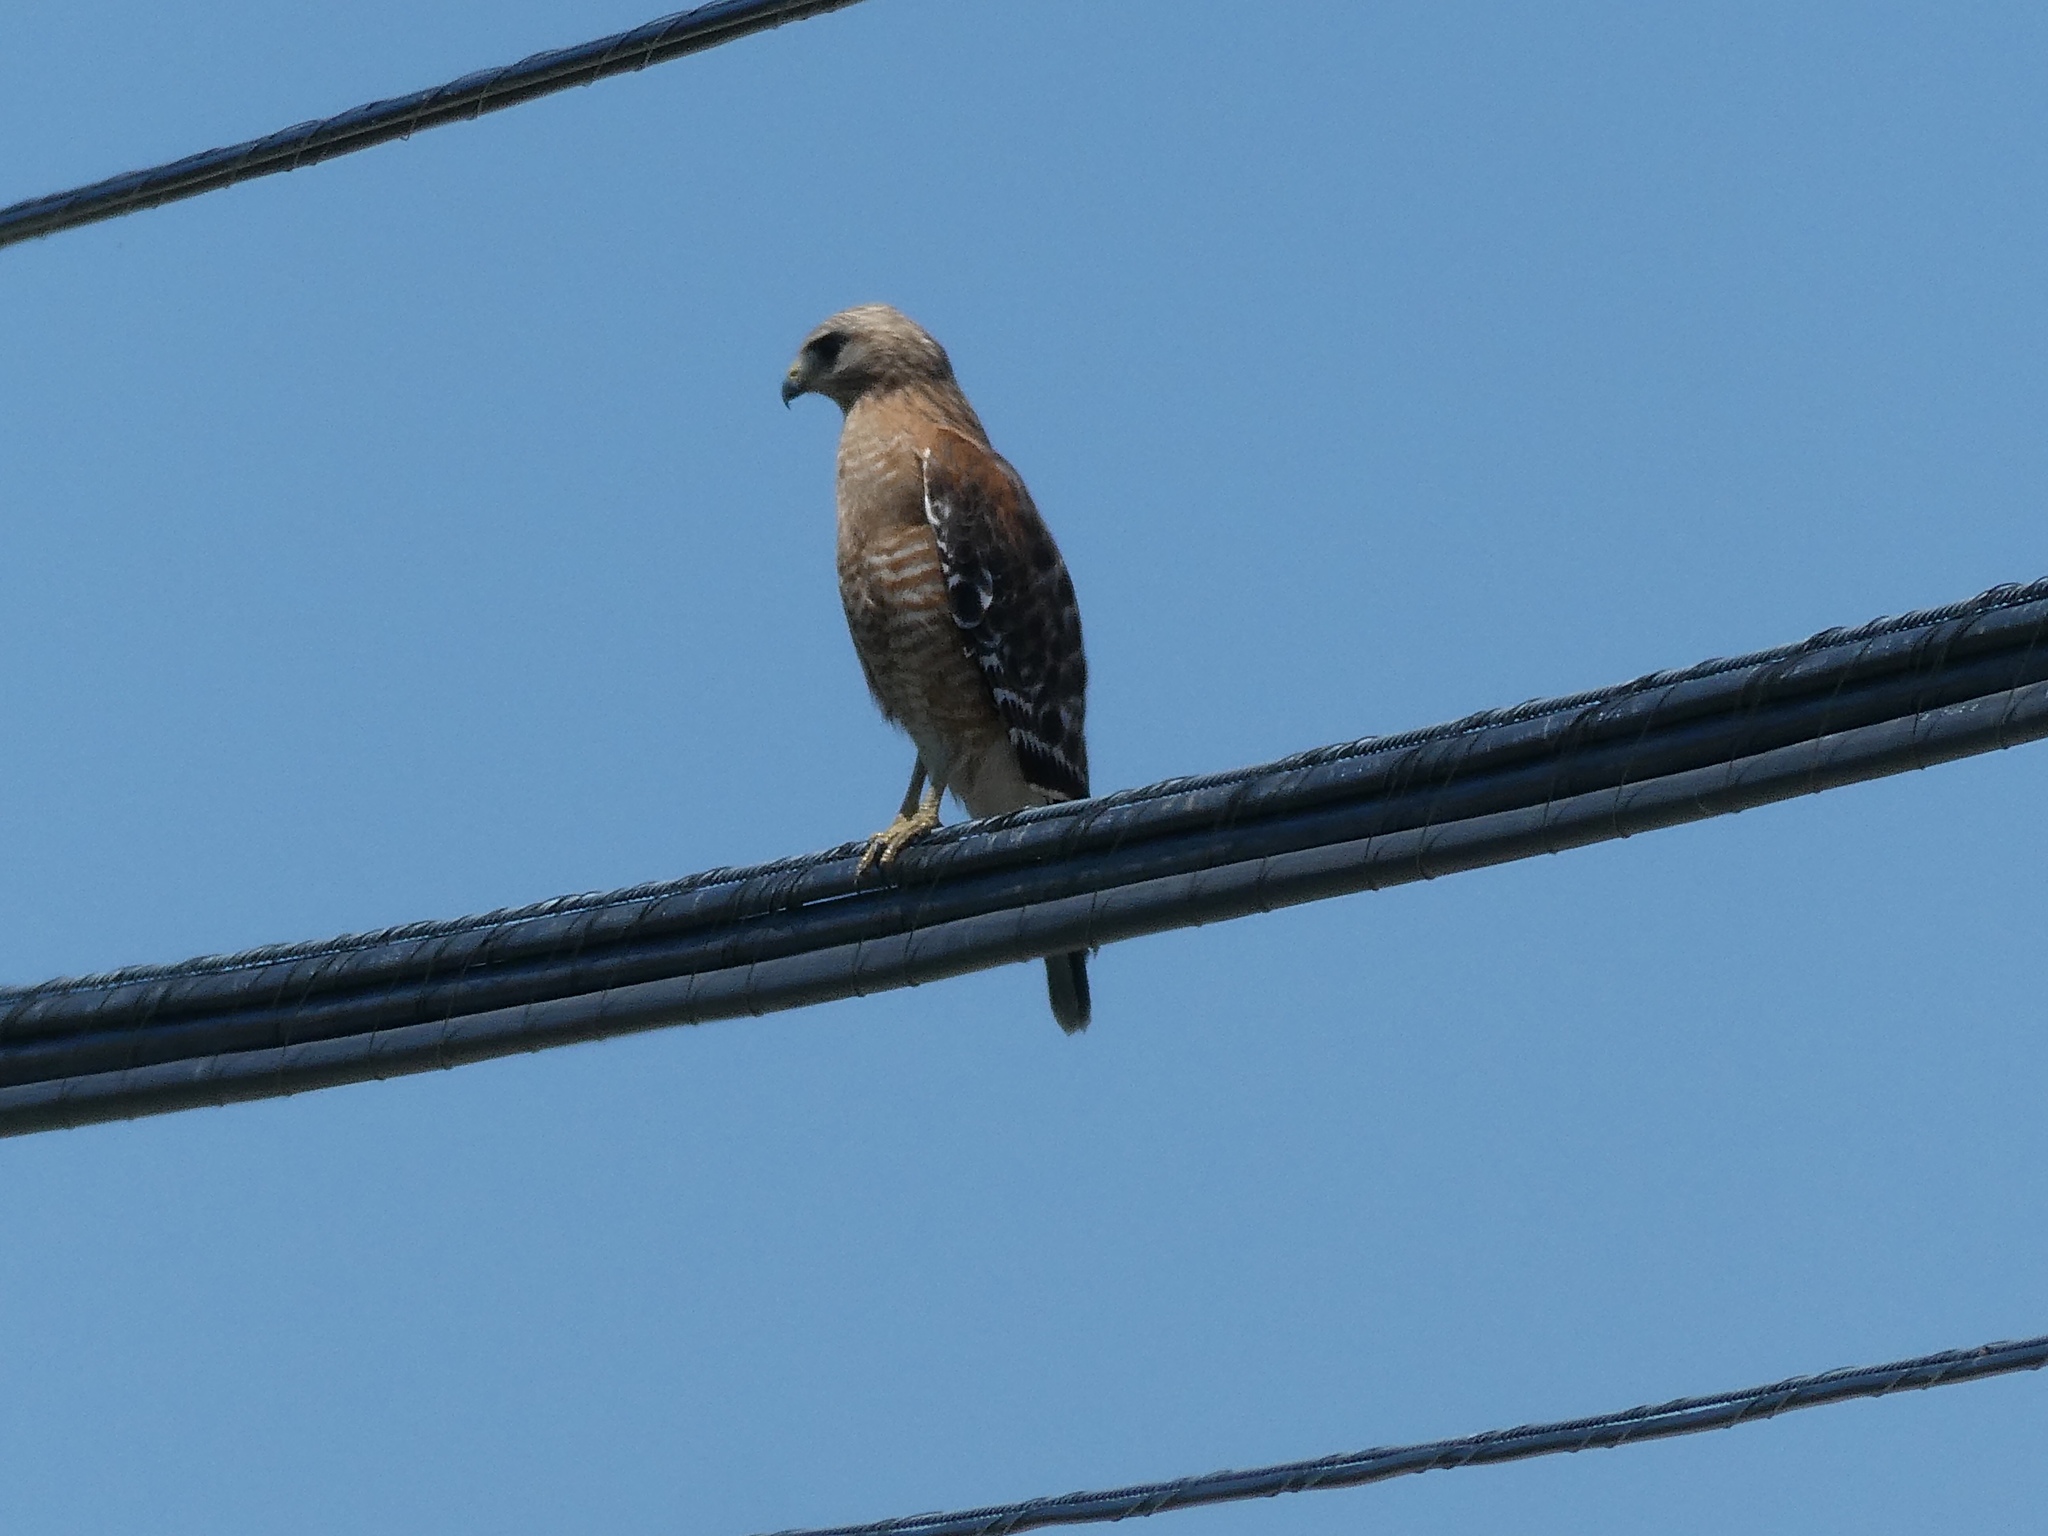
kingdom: Animalia
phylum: Chordata
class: Aves
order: Accipitriformes
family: Accipitridae
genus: Buteo
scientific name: Buteo lineatus
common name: Red-shouldered hawk
